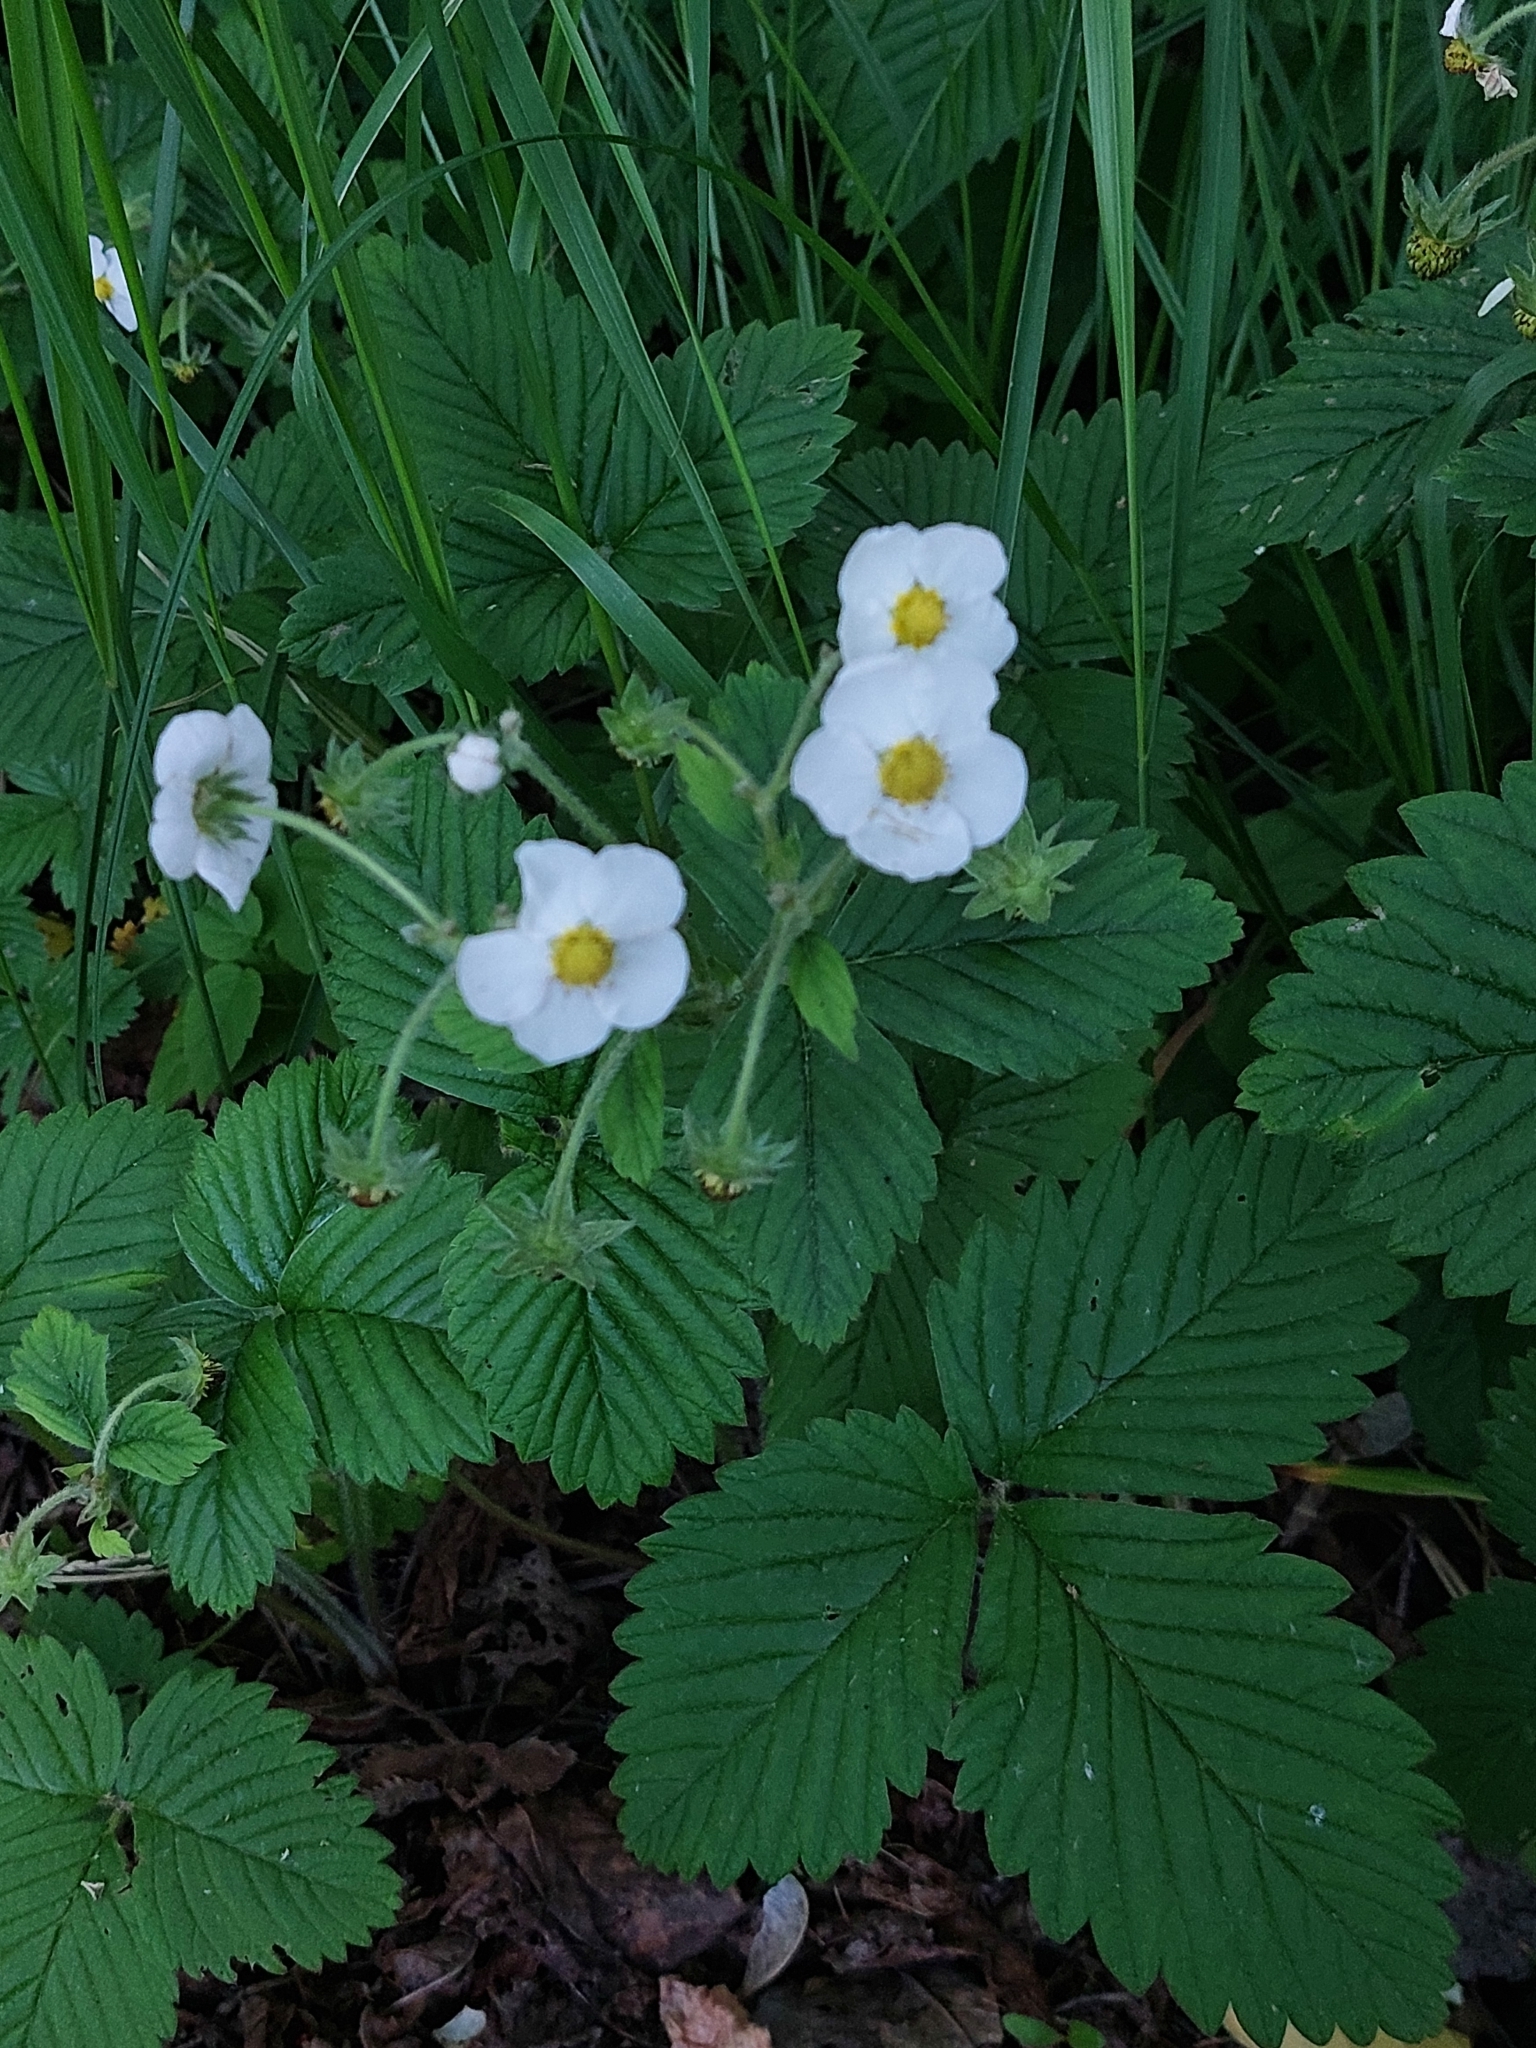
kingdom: Plantae
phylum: Tracheophyta
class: Magnoliopsida
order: Rosales
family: Rosaceae
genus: Fragaria
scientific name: Fragaria moschata
